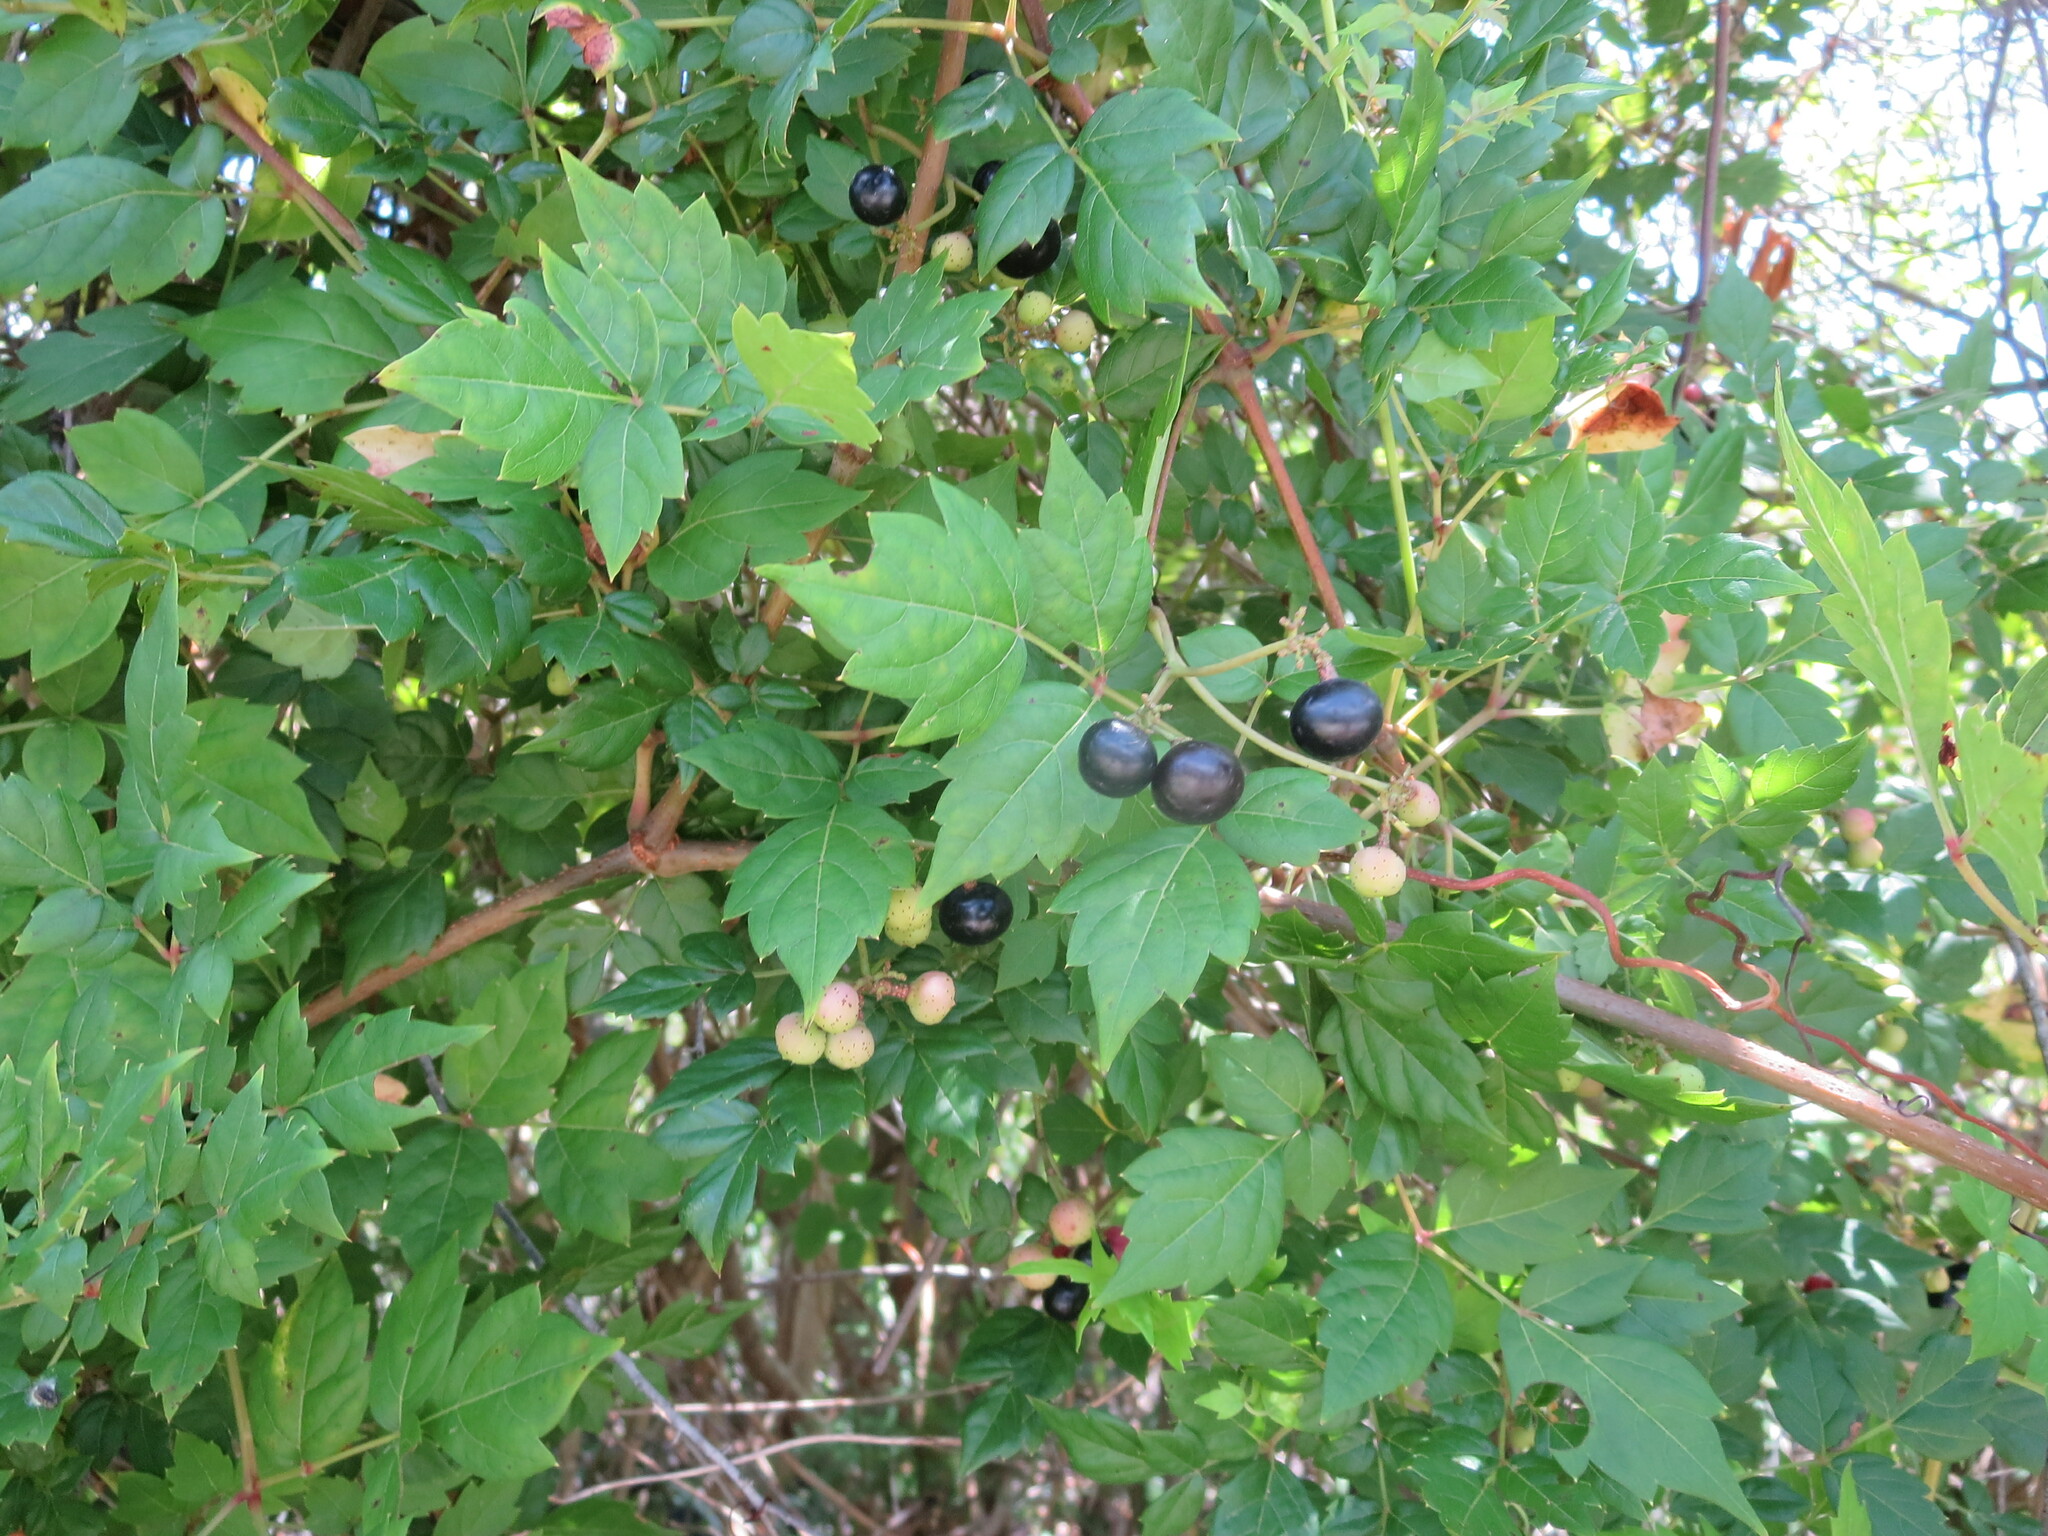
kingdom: Plantae
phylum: Tracheophyta
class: Magnoliopsida
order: Vitales
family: Vitaceae
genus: Nekemias
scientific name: Nekemias arborea
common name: Peppervine
